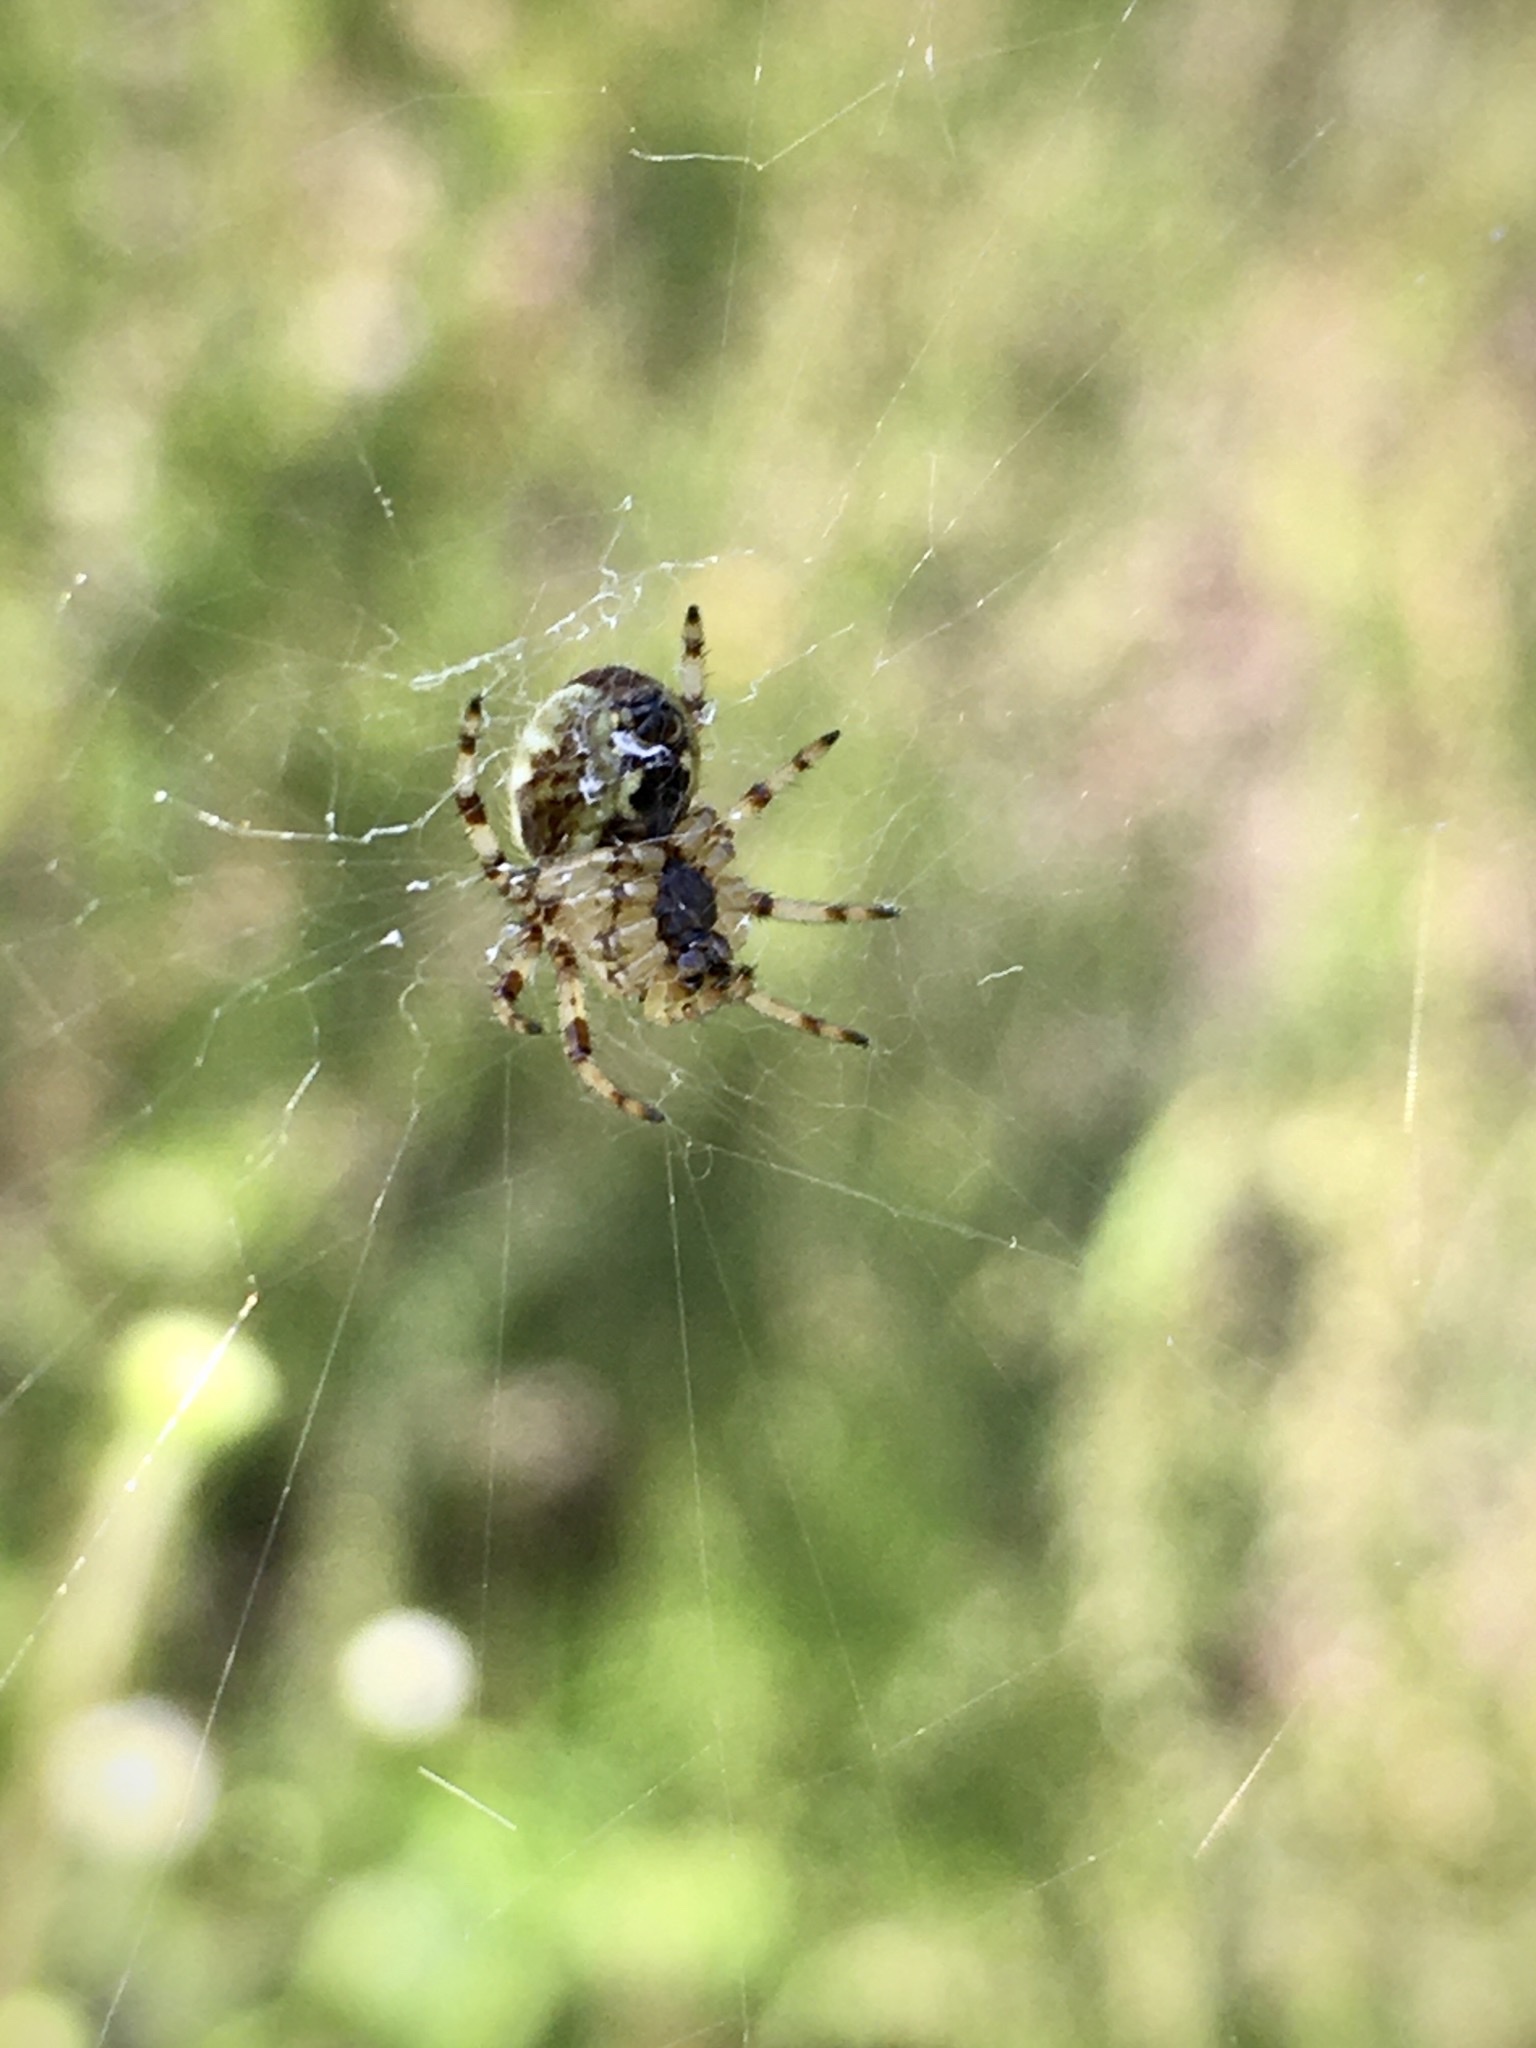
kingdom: Animalia
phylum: Arthropoda
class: Arachnida
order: Araneae
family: Araneidae
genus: Araneus
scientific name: Araneus quadratus
